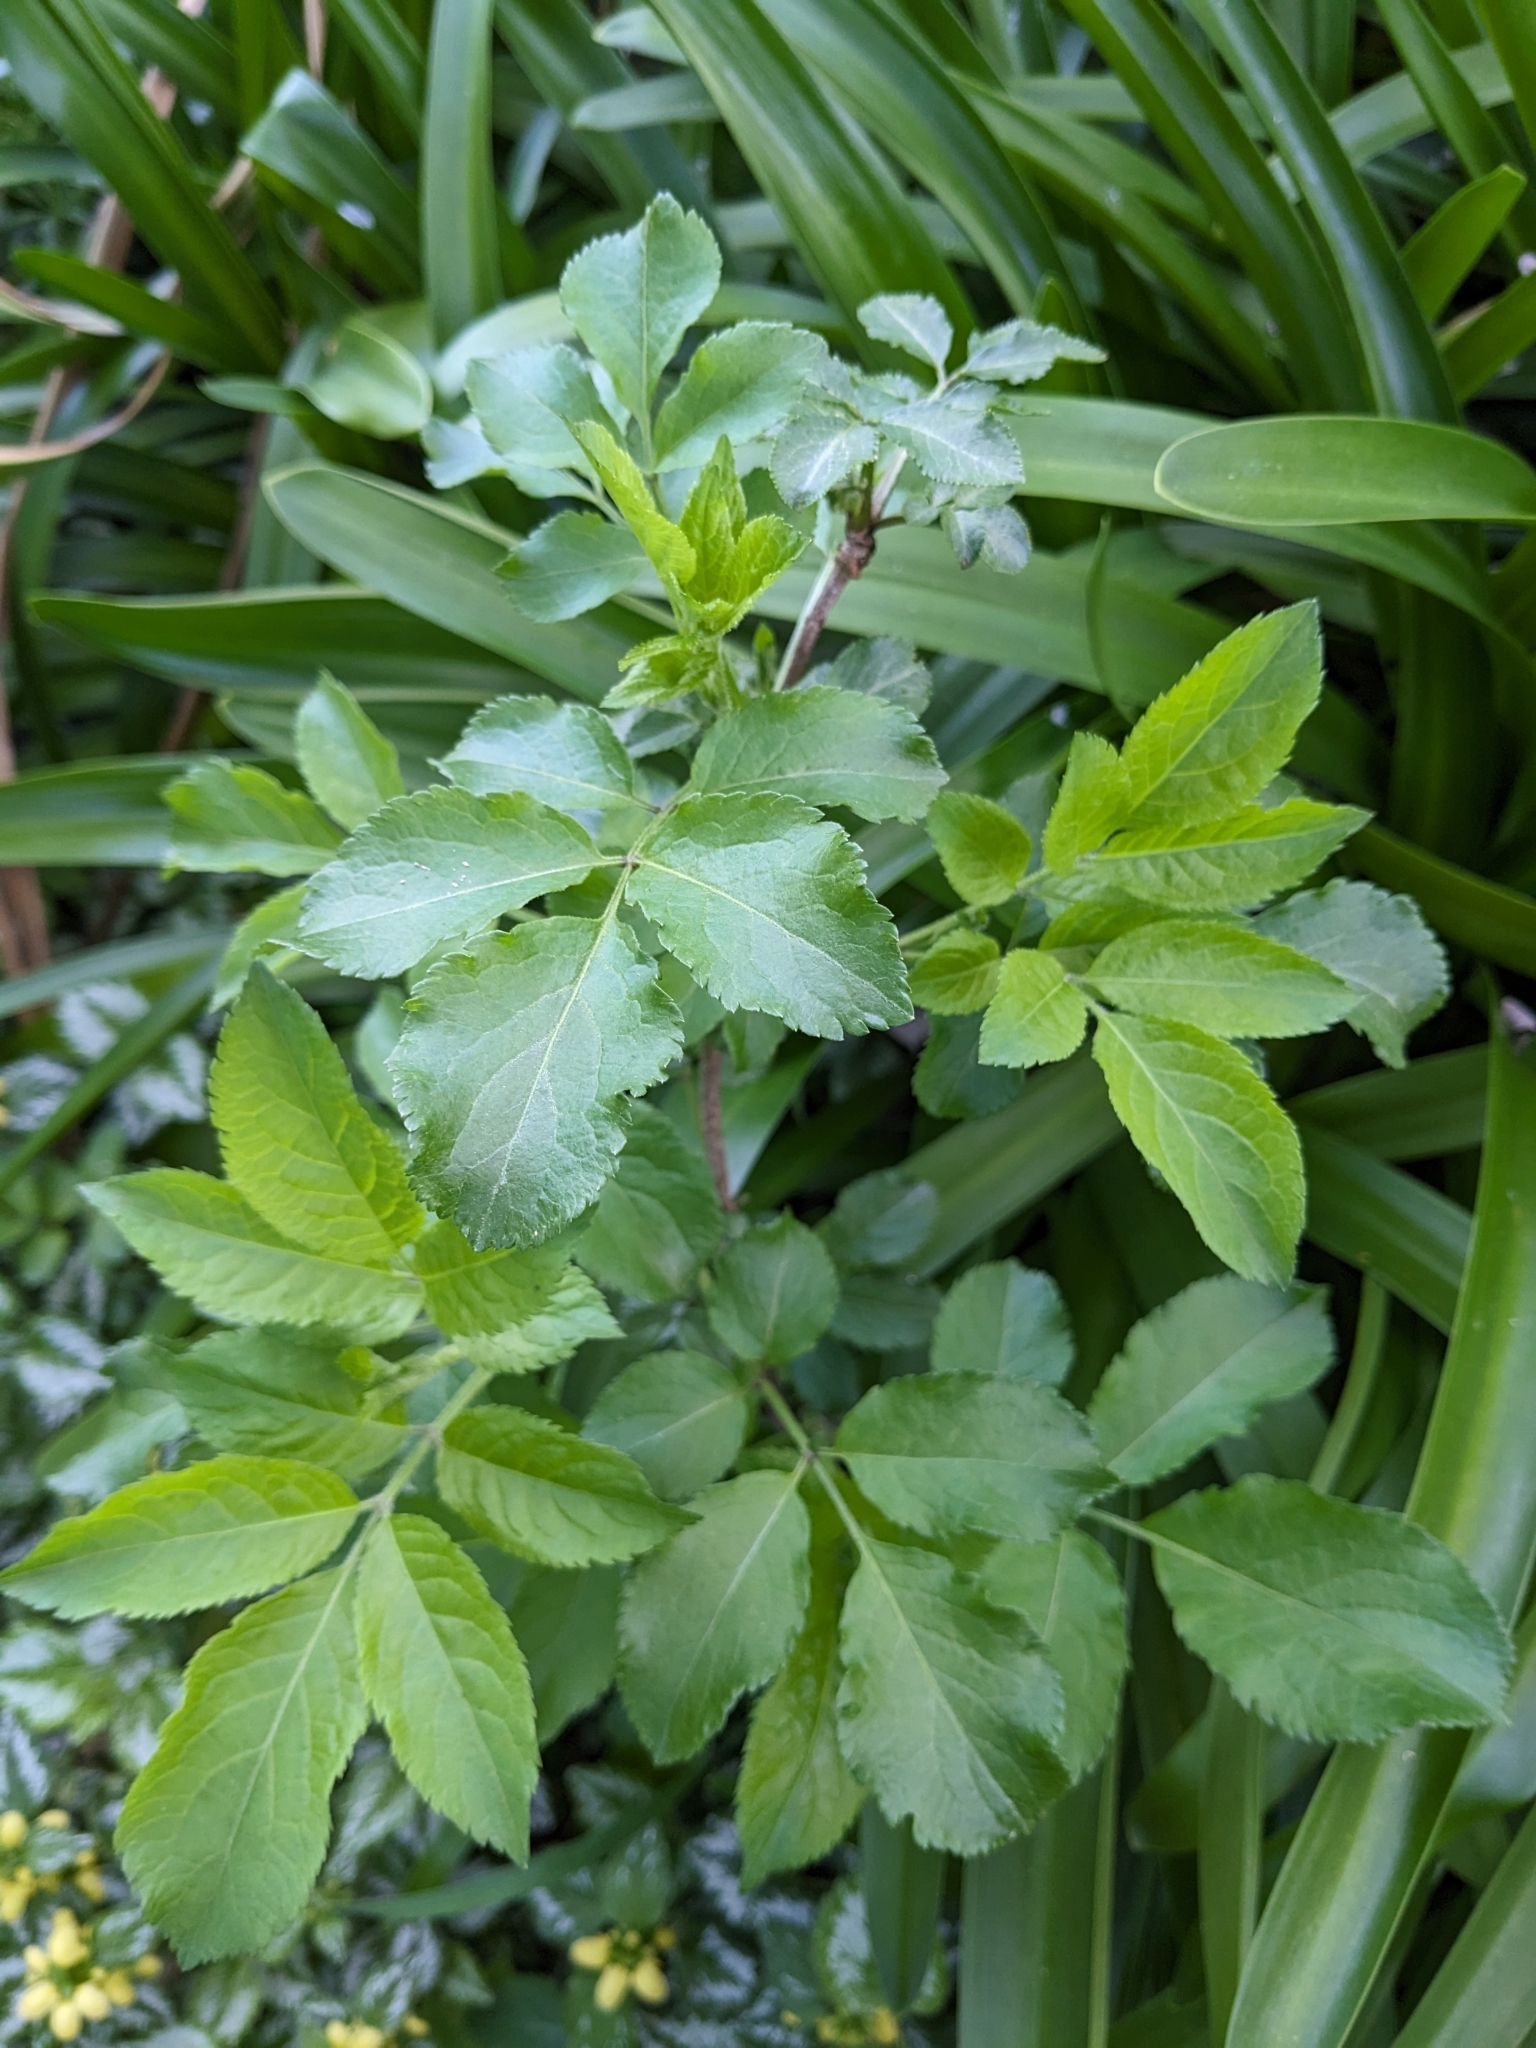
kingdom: Plantae
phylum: Tracheophyta
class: Magnoliopsida
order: Dipsacales
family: Viburnaceae
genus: Sambucus
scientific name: Sambucus nigra
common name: Elder
